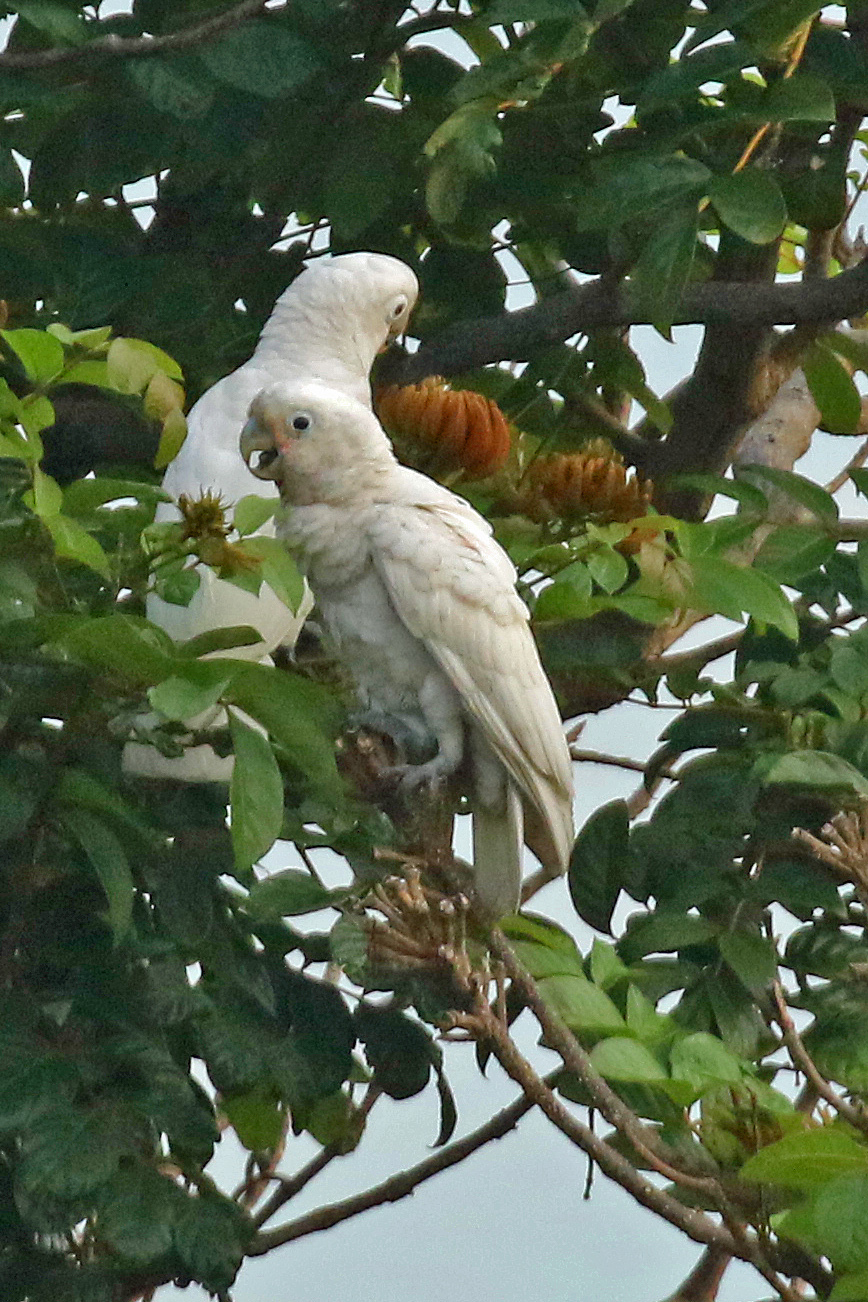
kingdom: Animalia
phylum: Chordata
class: Aves
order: Psittaciformes
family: Psittacidae
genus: Cacatua
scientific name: Cacatua goffiniana
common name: Tanimbar corella
